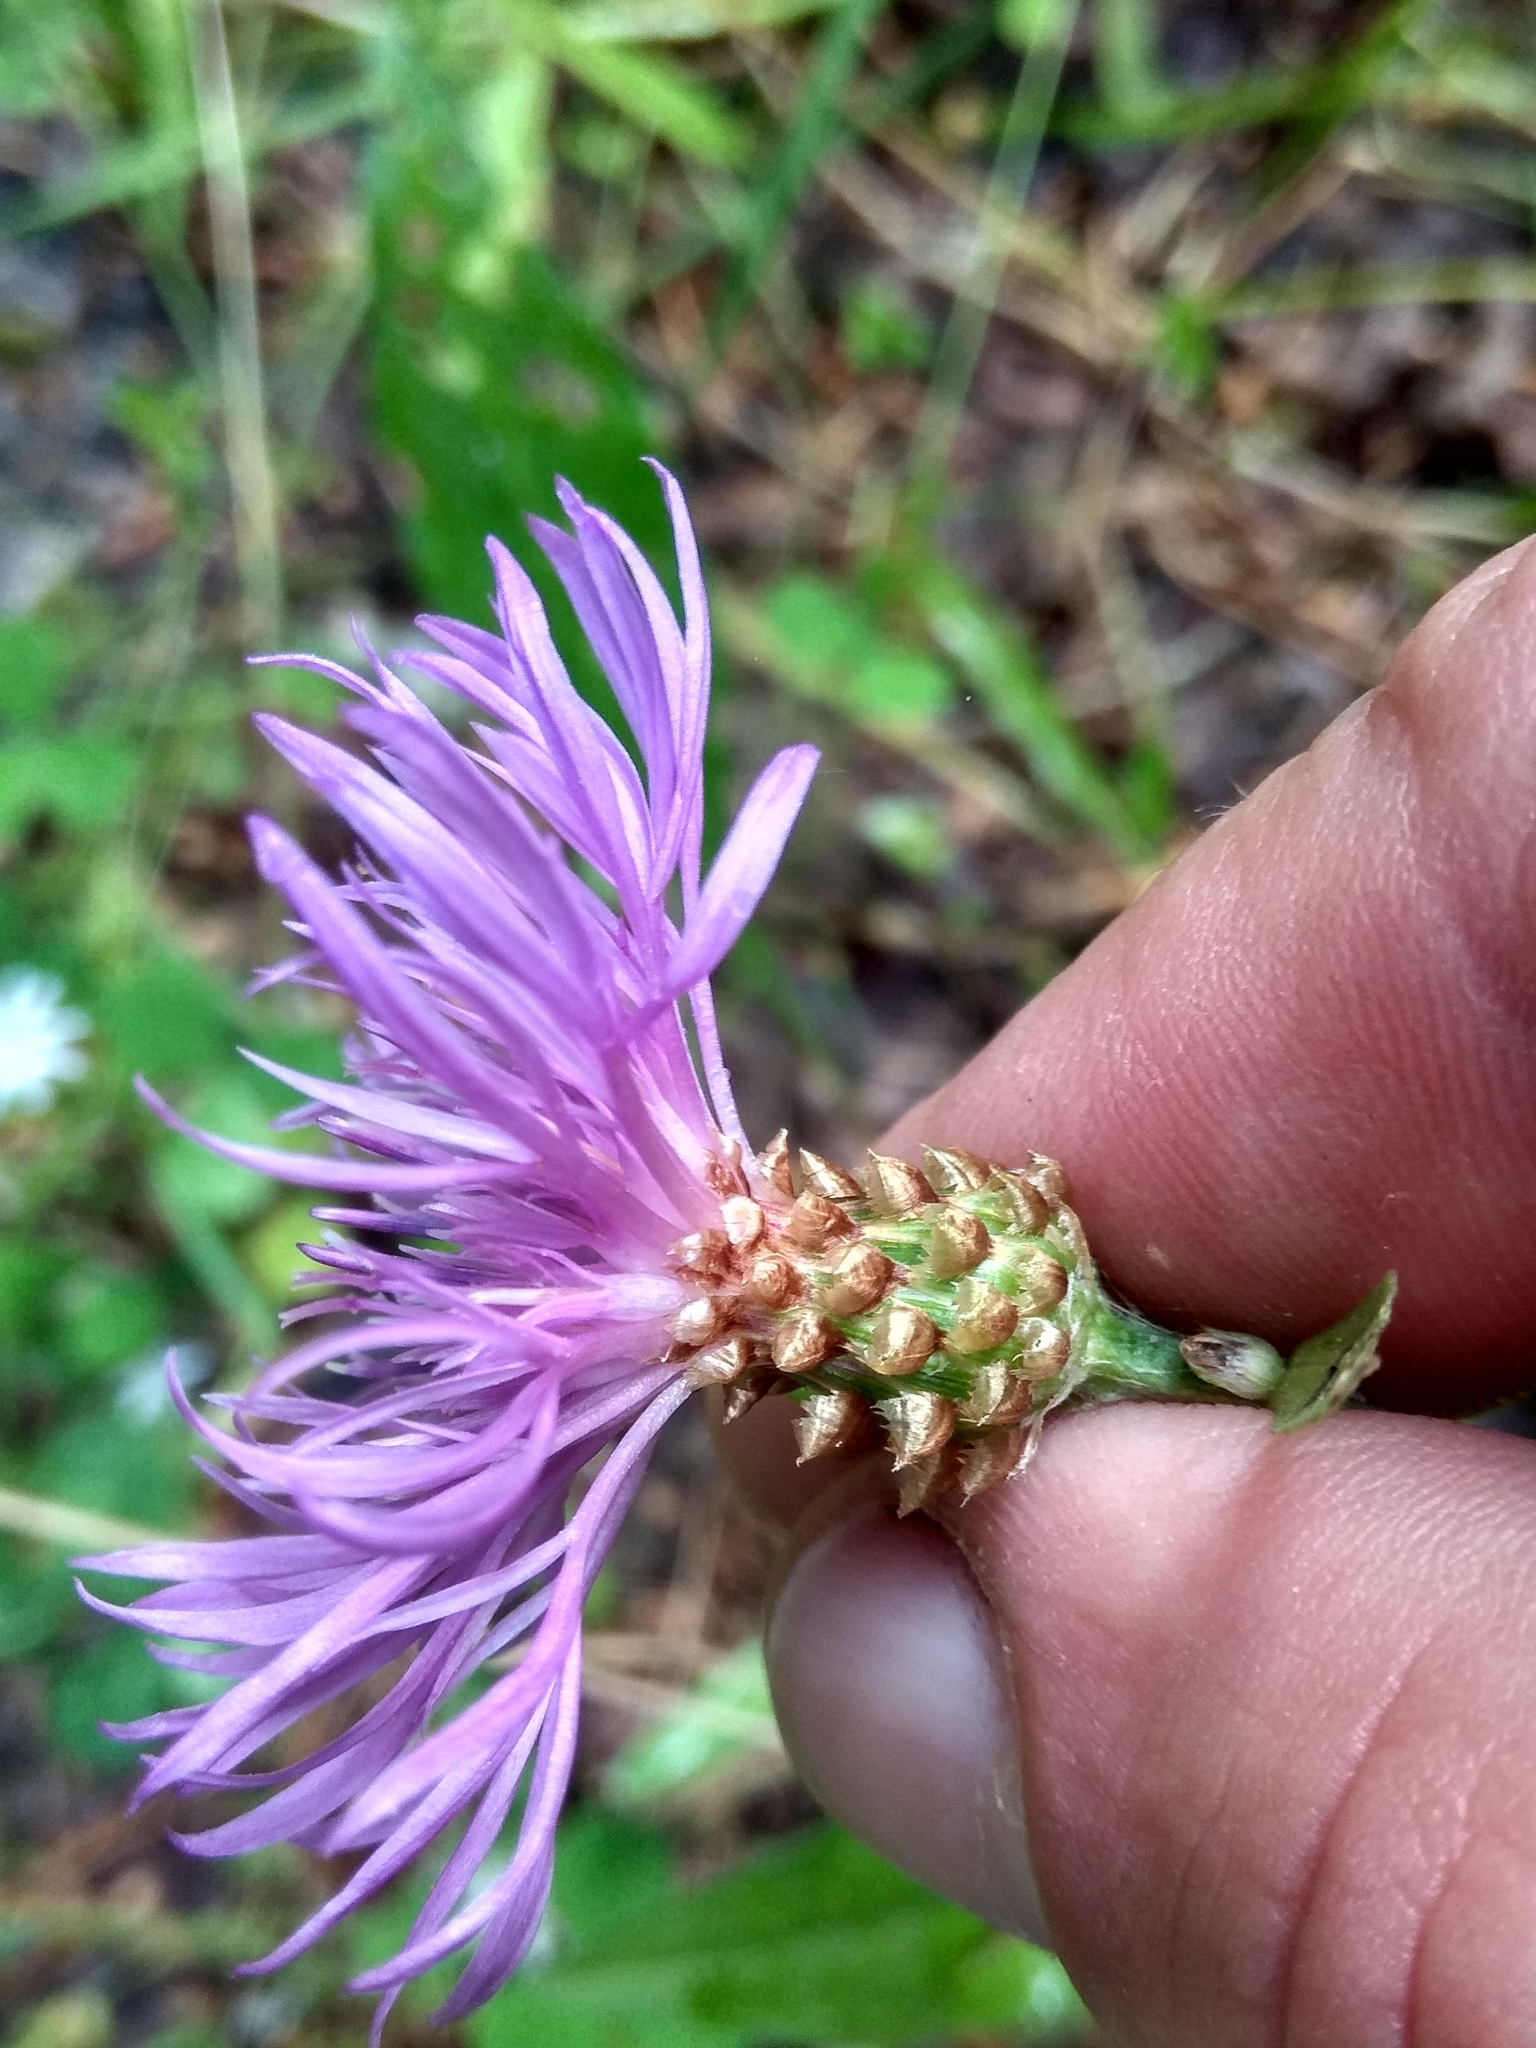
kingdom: Plantae
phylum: Tracheophyta
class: Magnoliopsida
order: Asterales
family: Asteraceae
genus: Centaurea
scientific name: Centaurea jacea
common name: Brown knapweed
